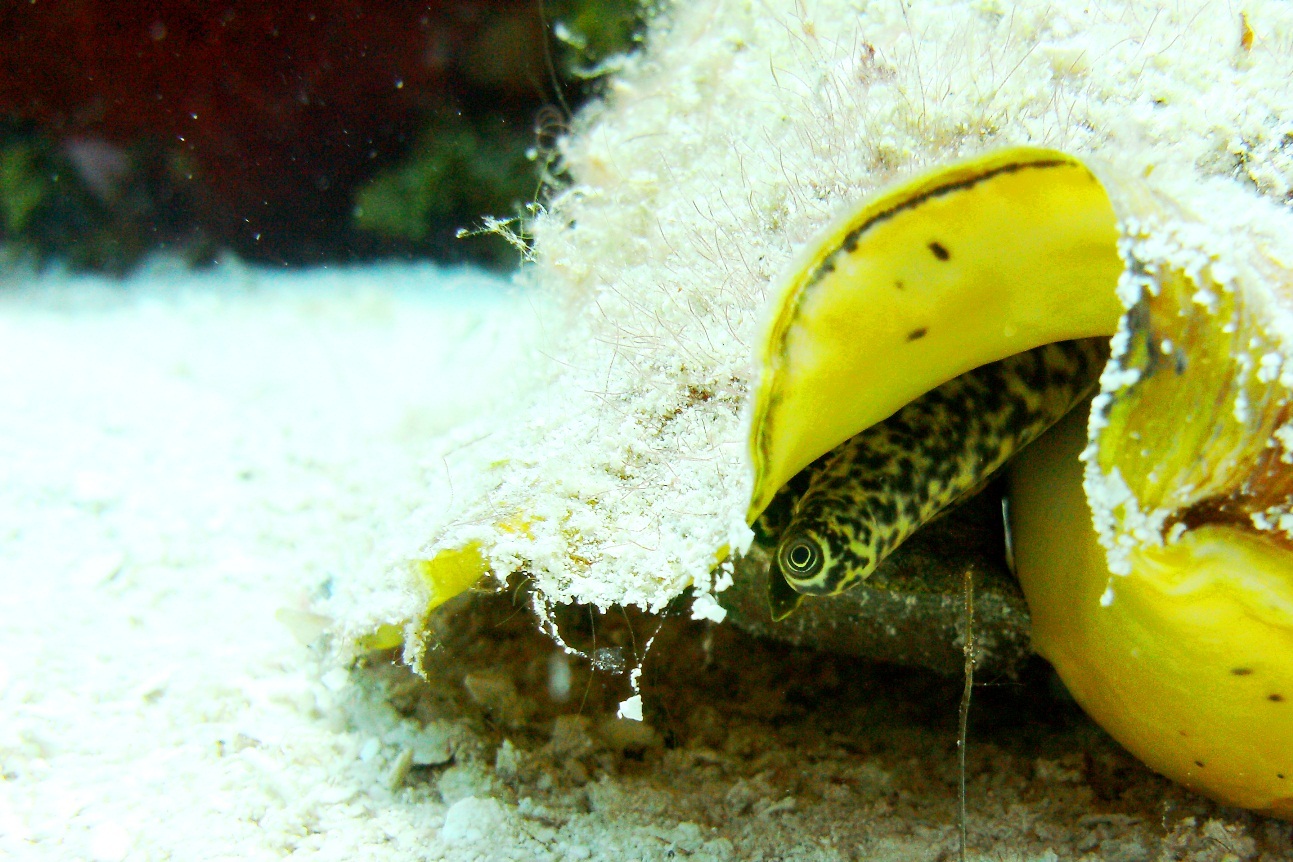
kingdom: Animalia
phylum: Mollusca
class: Gastropoda
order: Littorinimorpha
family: Strombidae
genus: Aliger
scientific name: Aliger gigas
